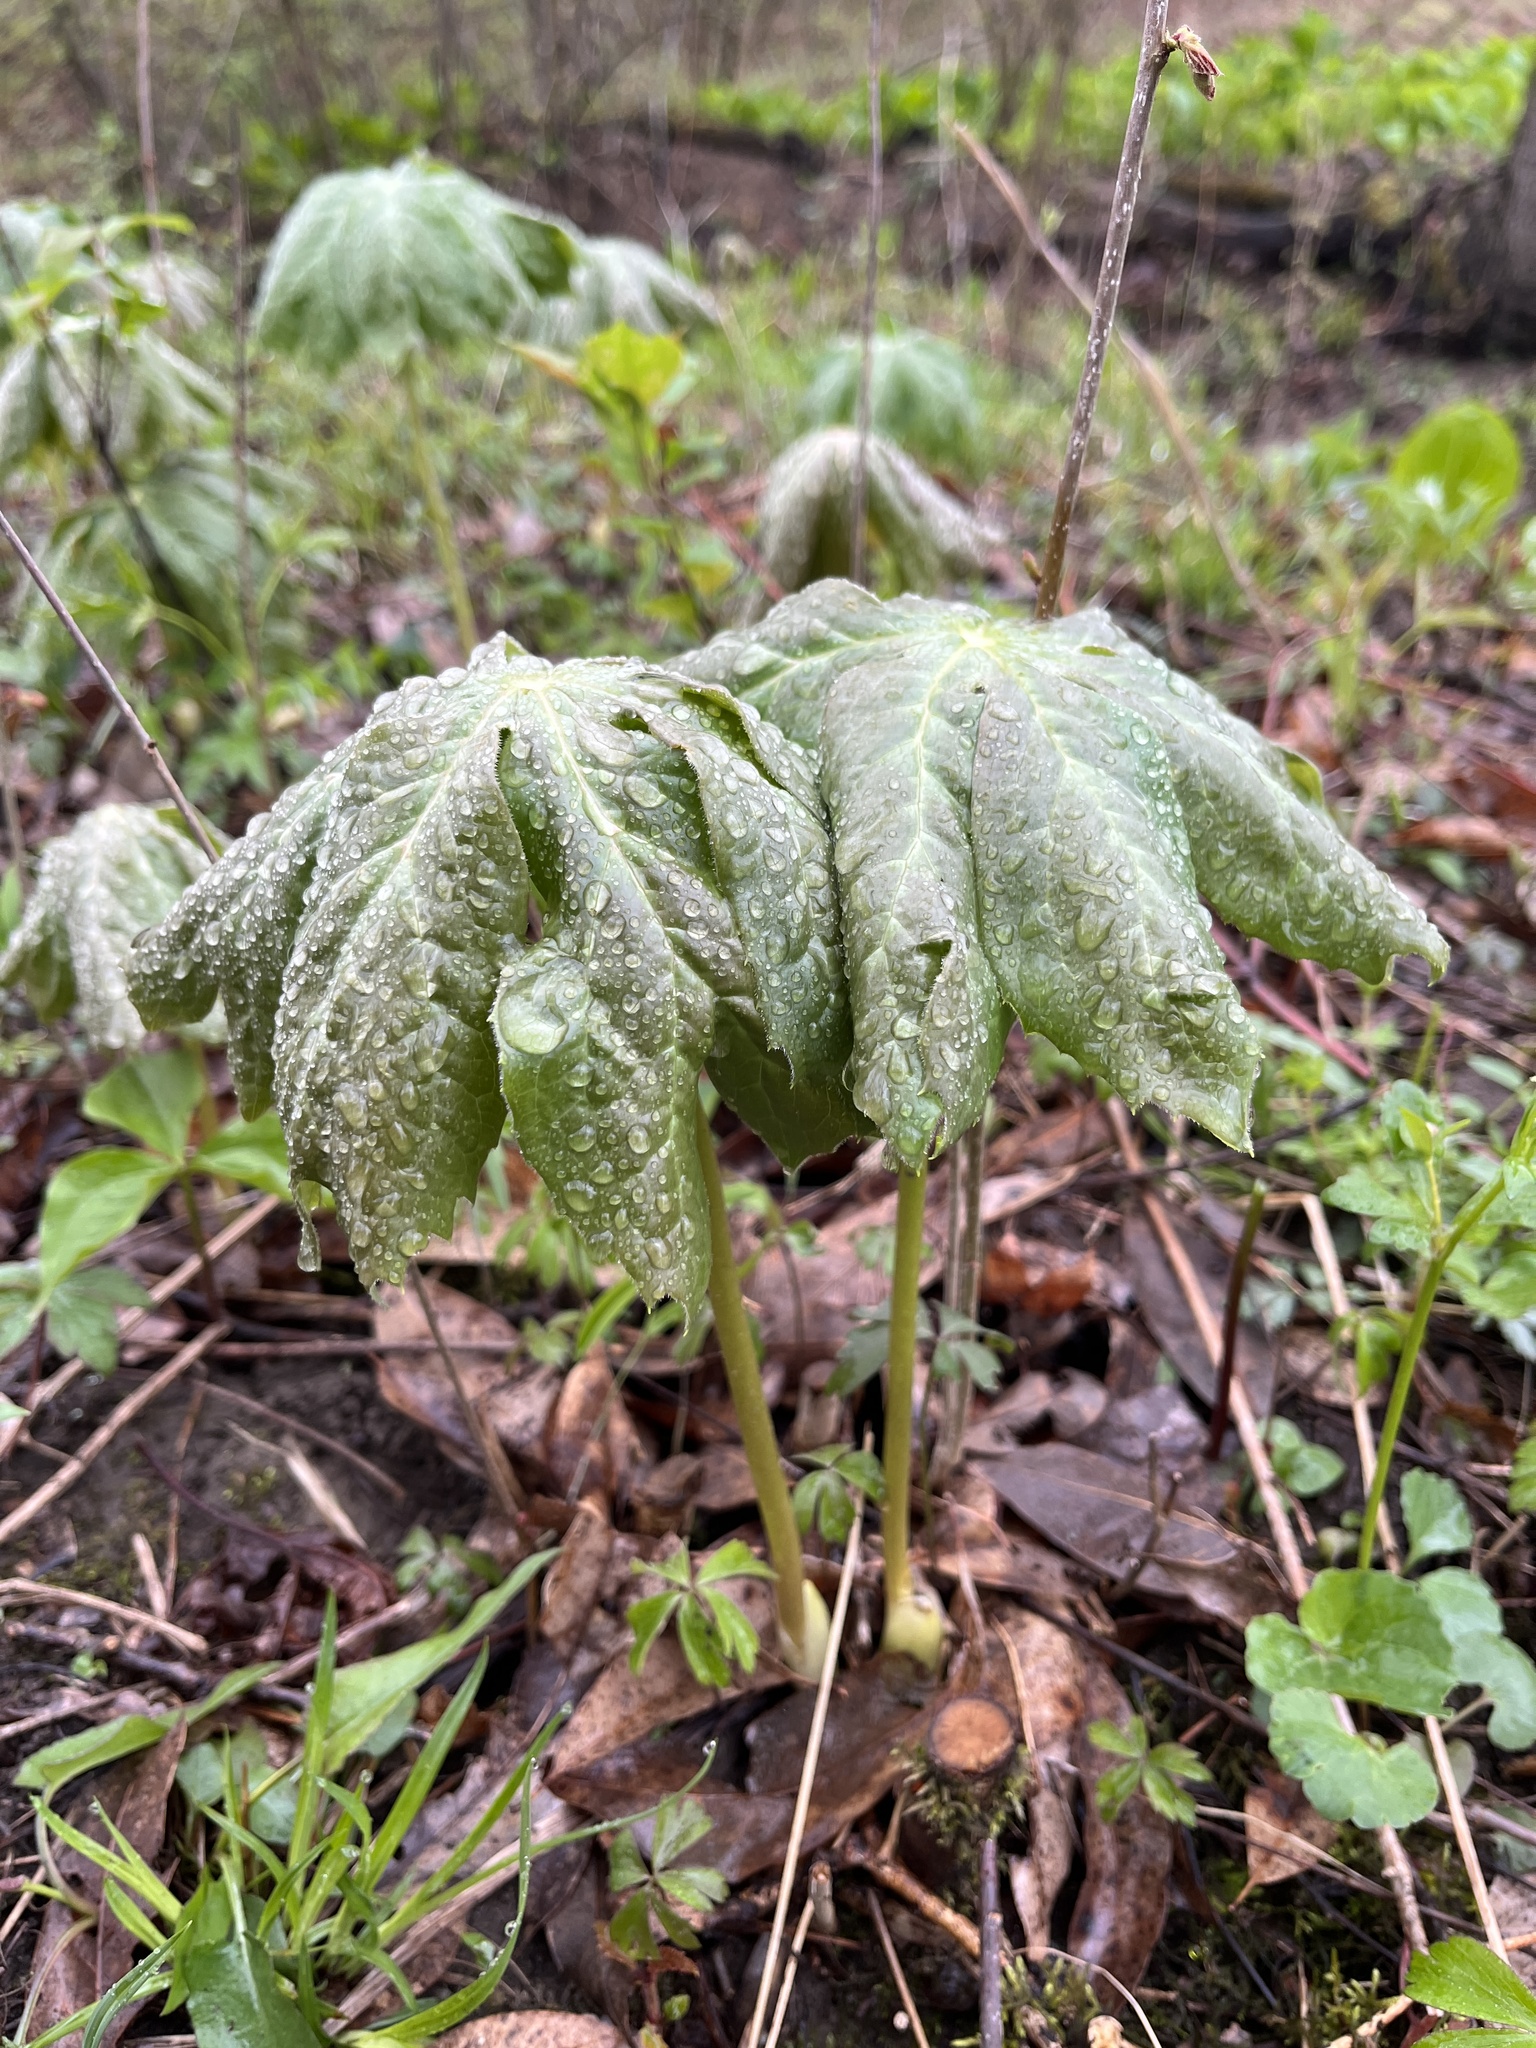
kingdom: Plantae
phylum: Tracheophyta
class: Magnoliopsida
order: Ranunculales
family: Berberidaceae
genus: Podophyllum
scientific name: Podophyllum peltatum
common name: Wild mandrake
